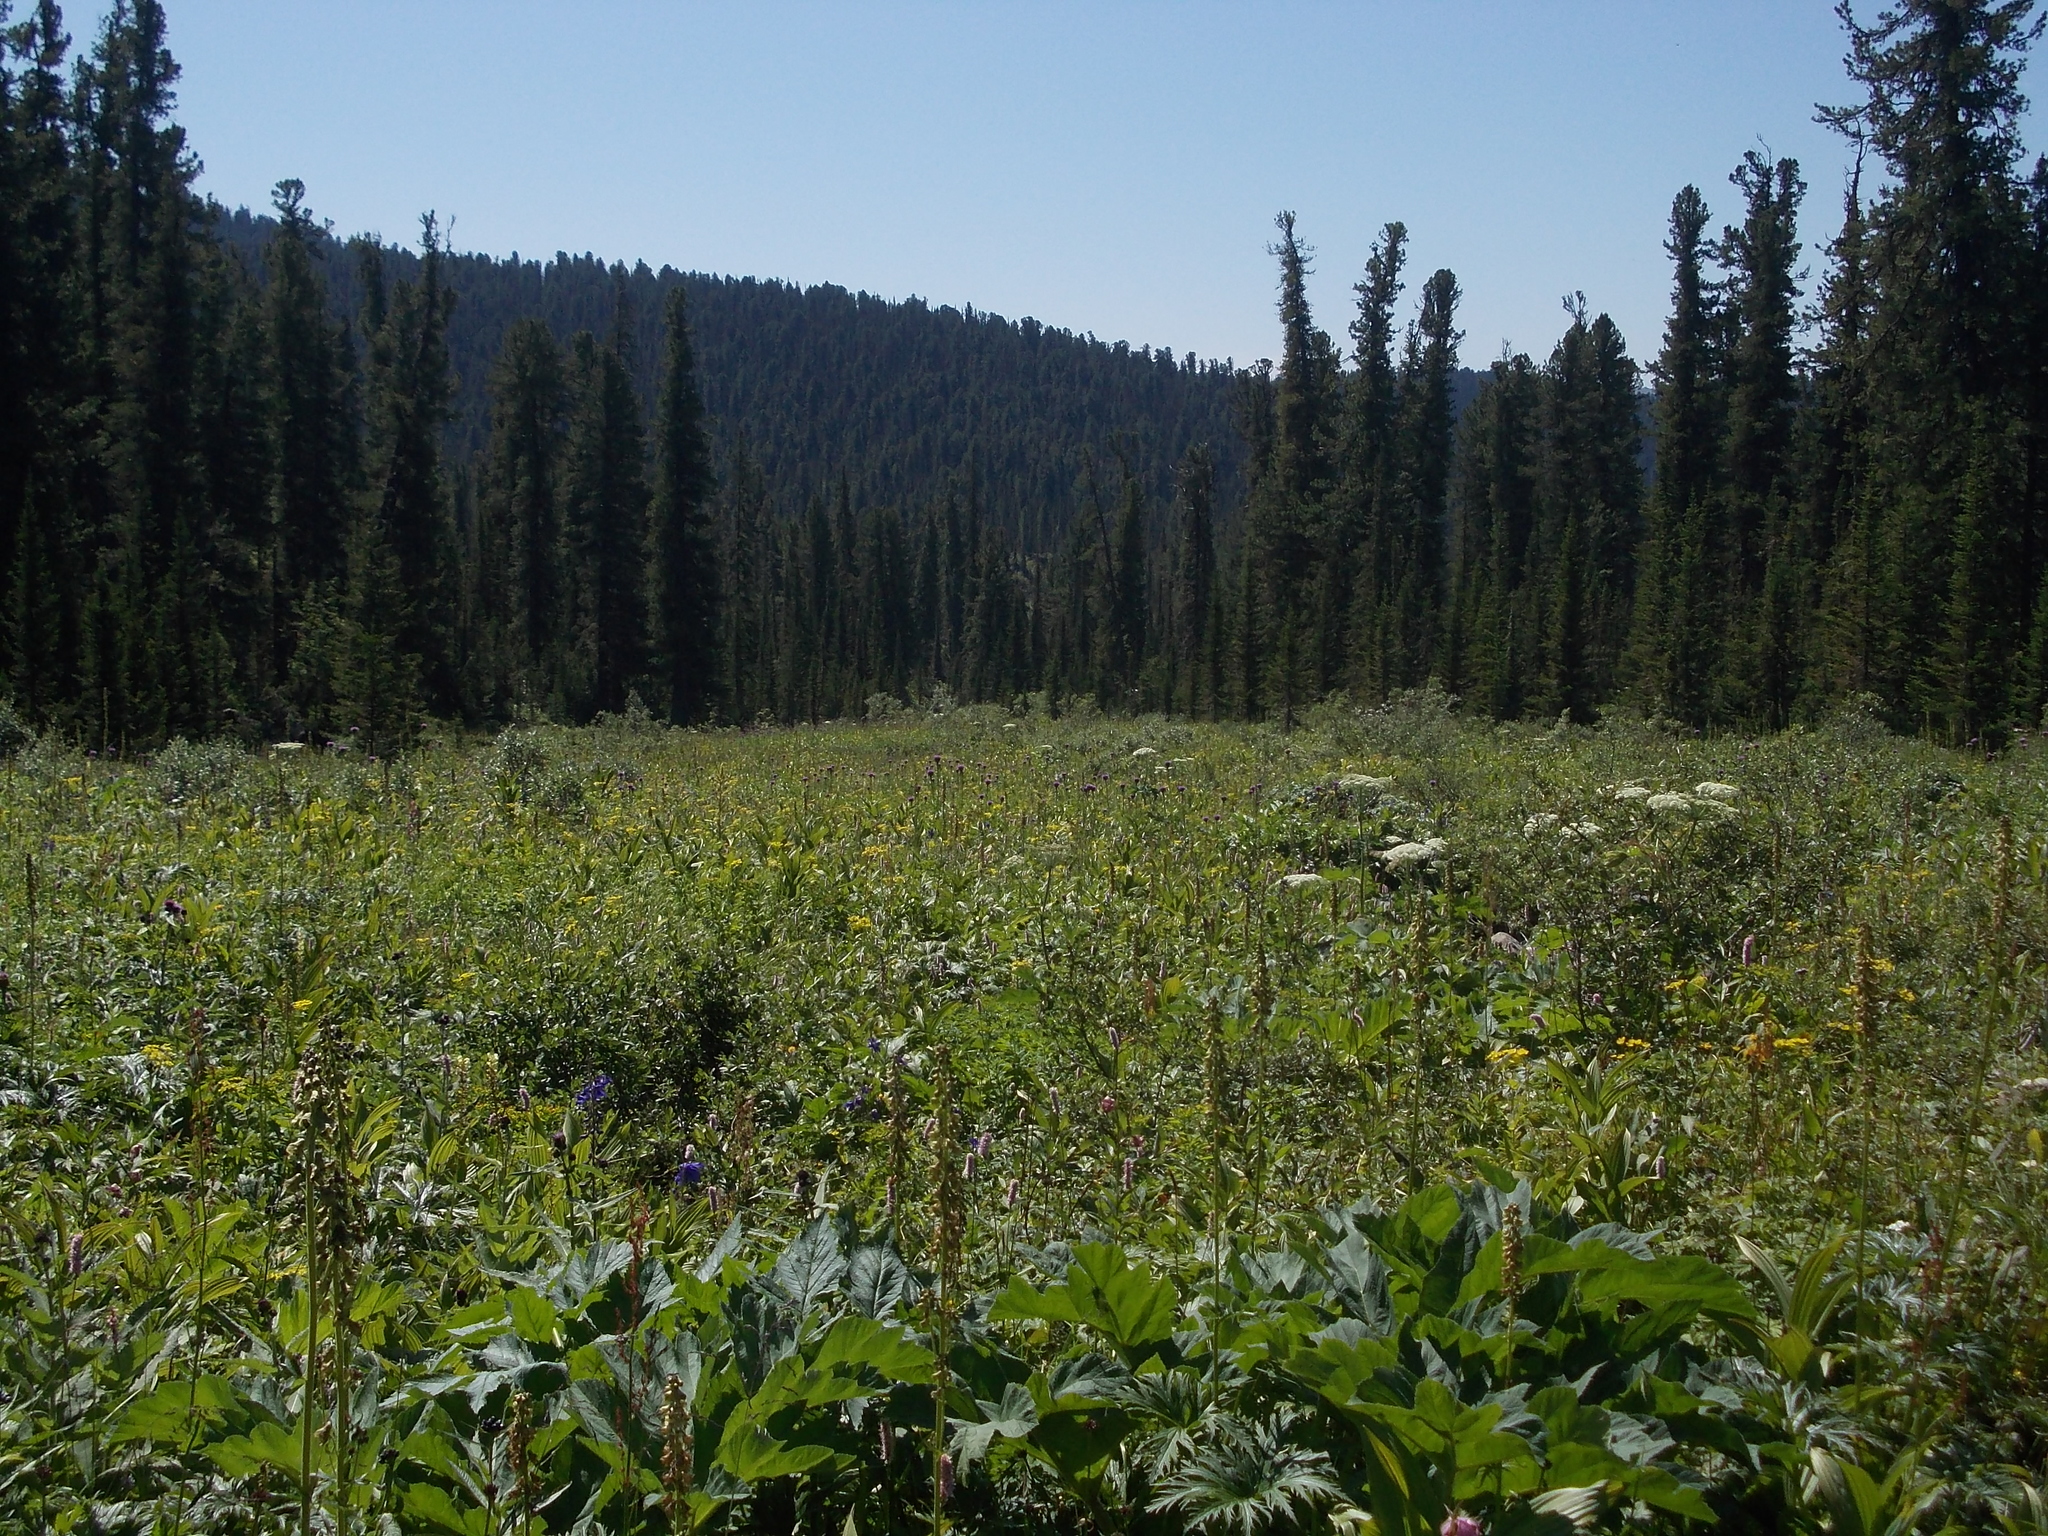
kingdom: Plantae
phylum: Tracheophyta
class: Magnoliopsida
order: Apiales
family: Apiaceae
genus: Heracleum
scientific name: Heracleum dissectum
